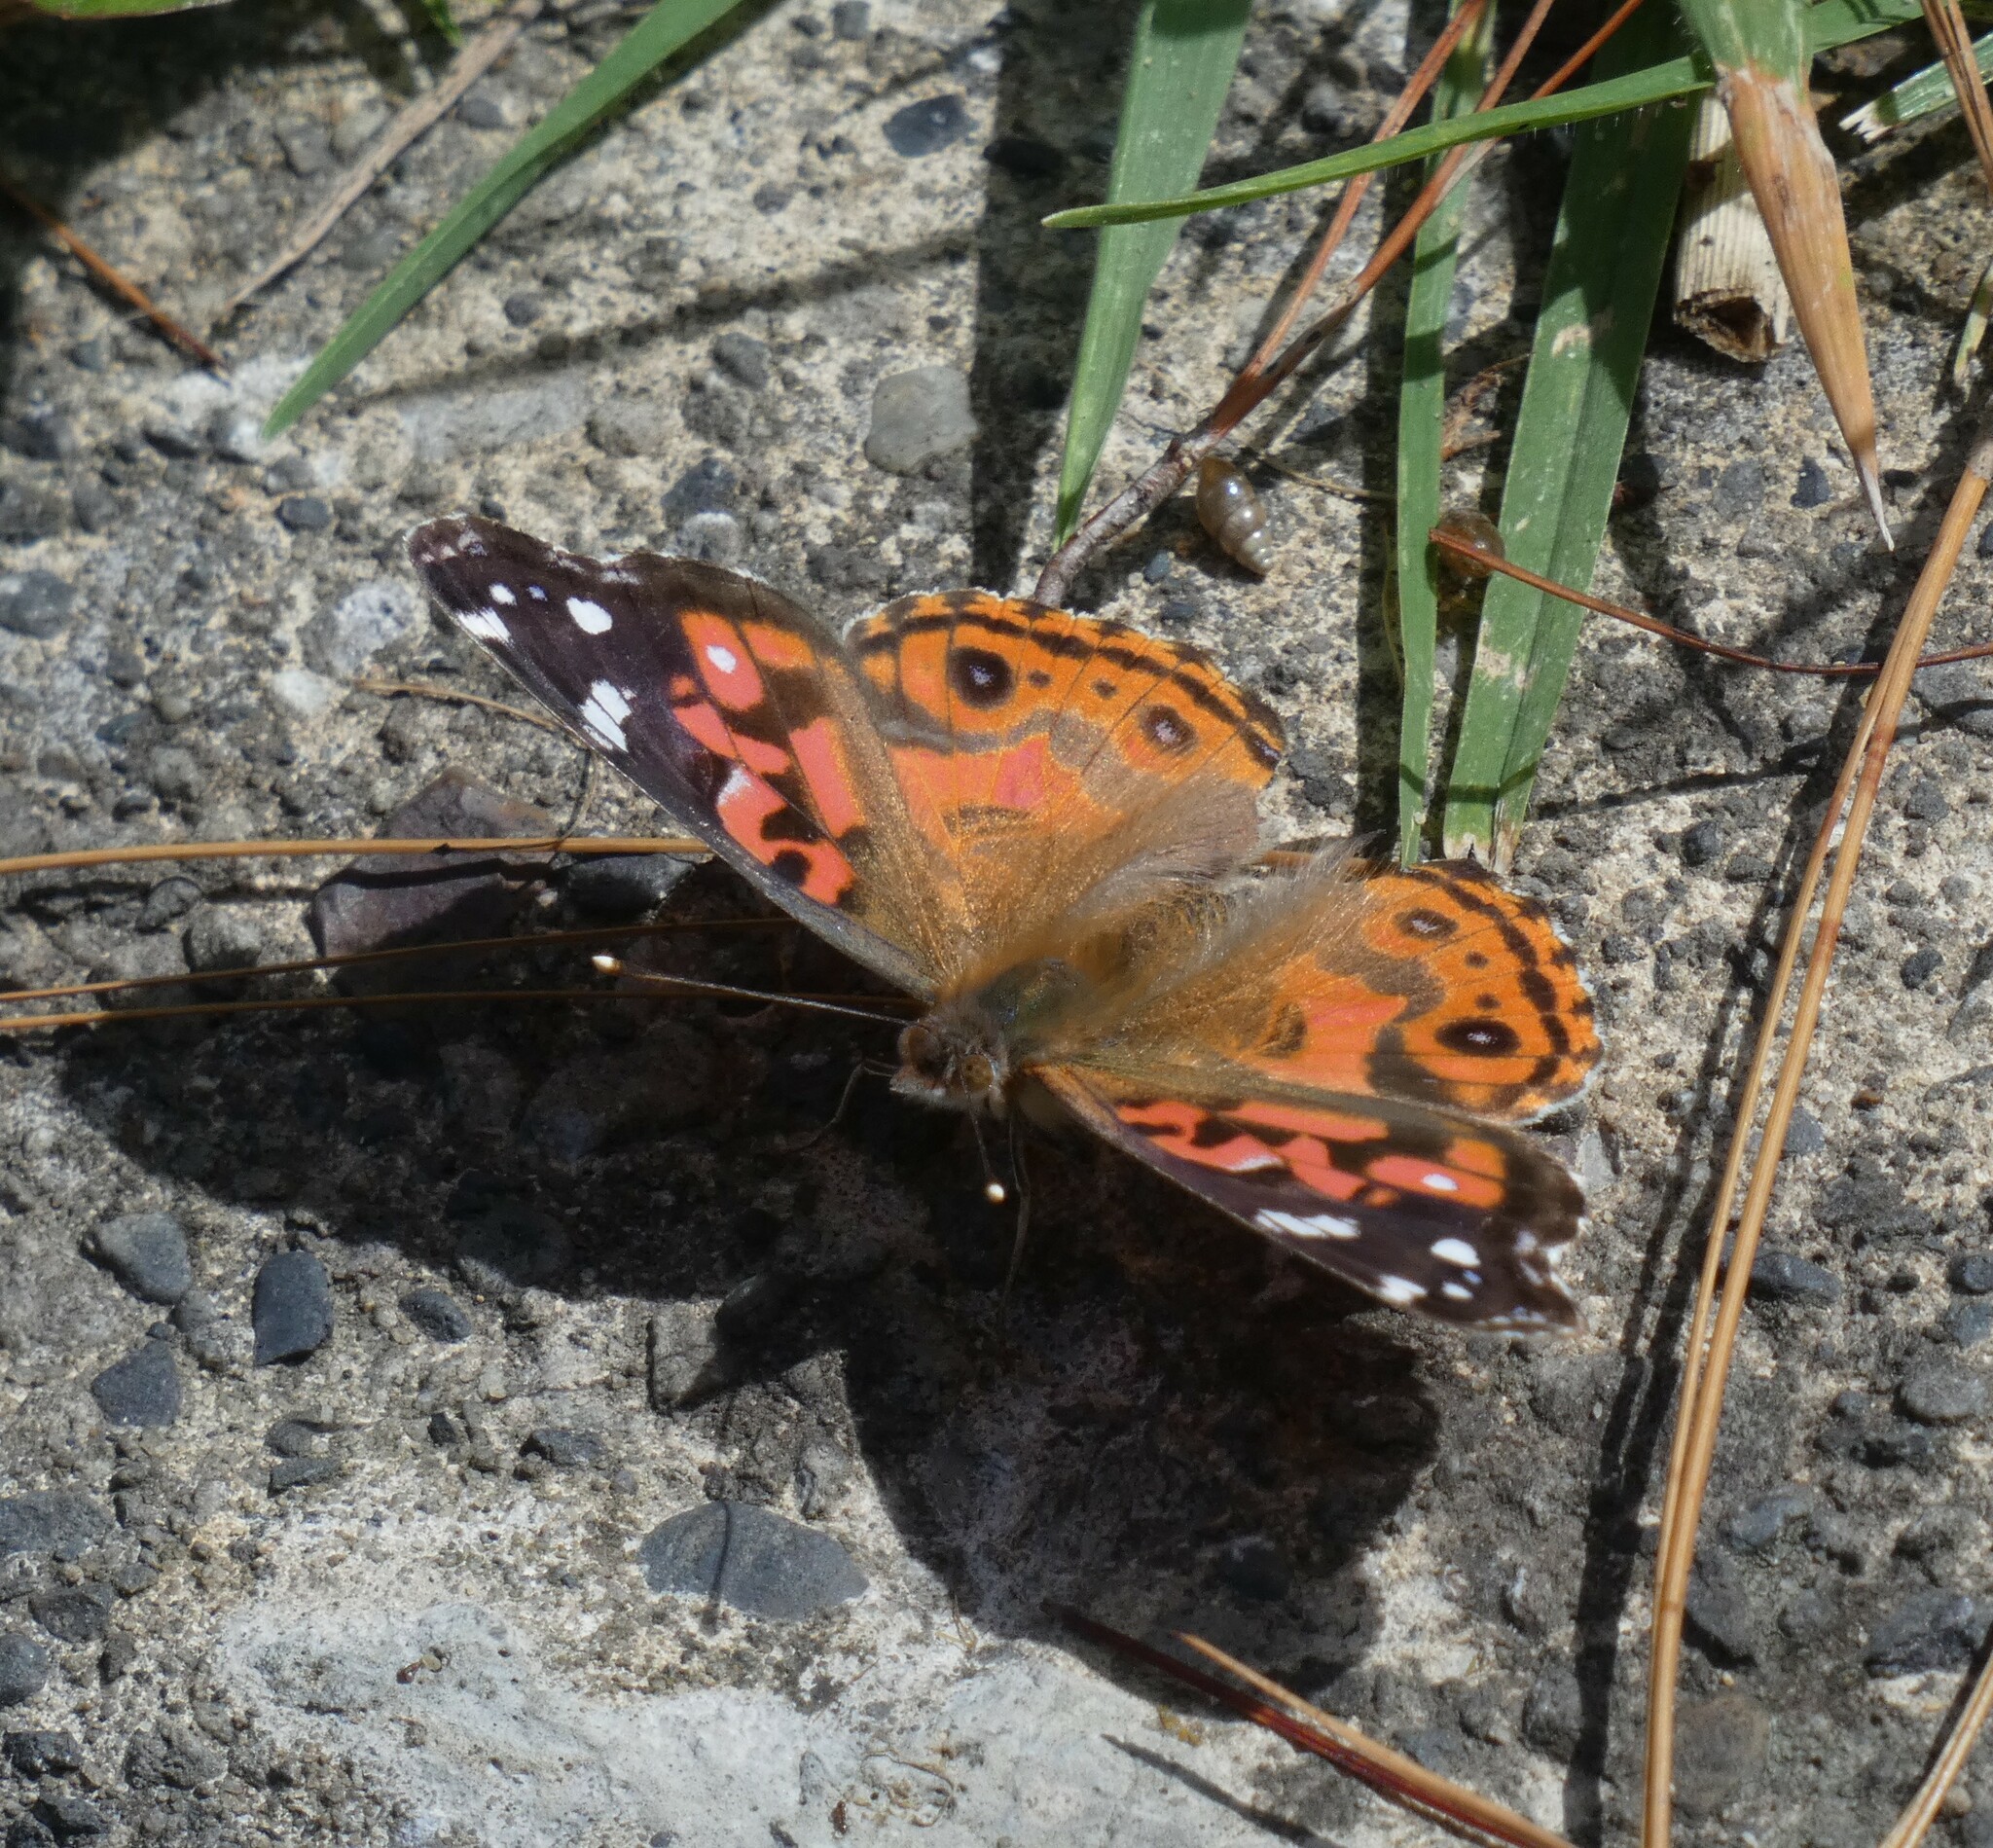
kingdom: Animalia
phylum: Arthropoda
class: Insecta
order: Lepidoptera
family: Nymphalidae
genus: Vanessa
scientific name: Vanessa braziliensis
